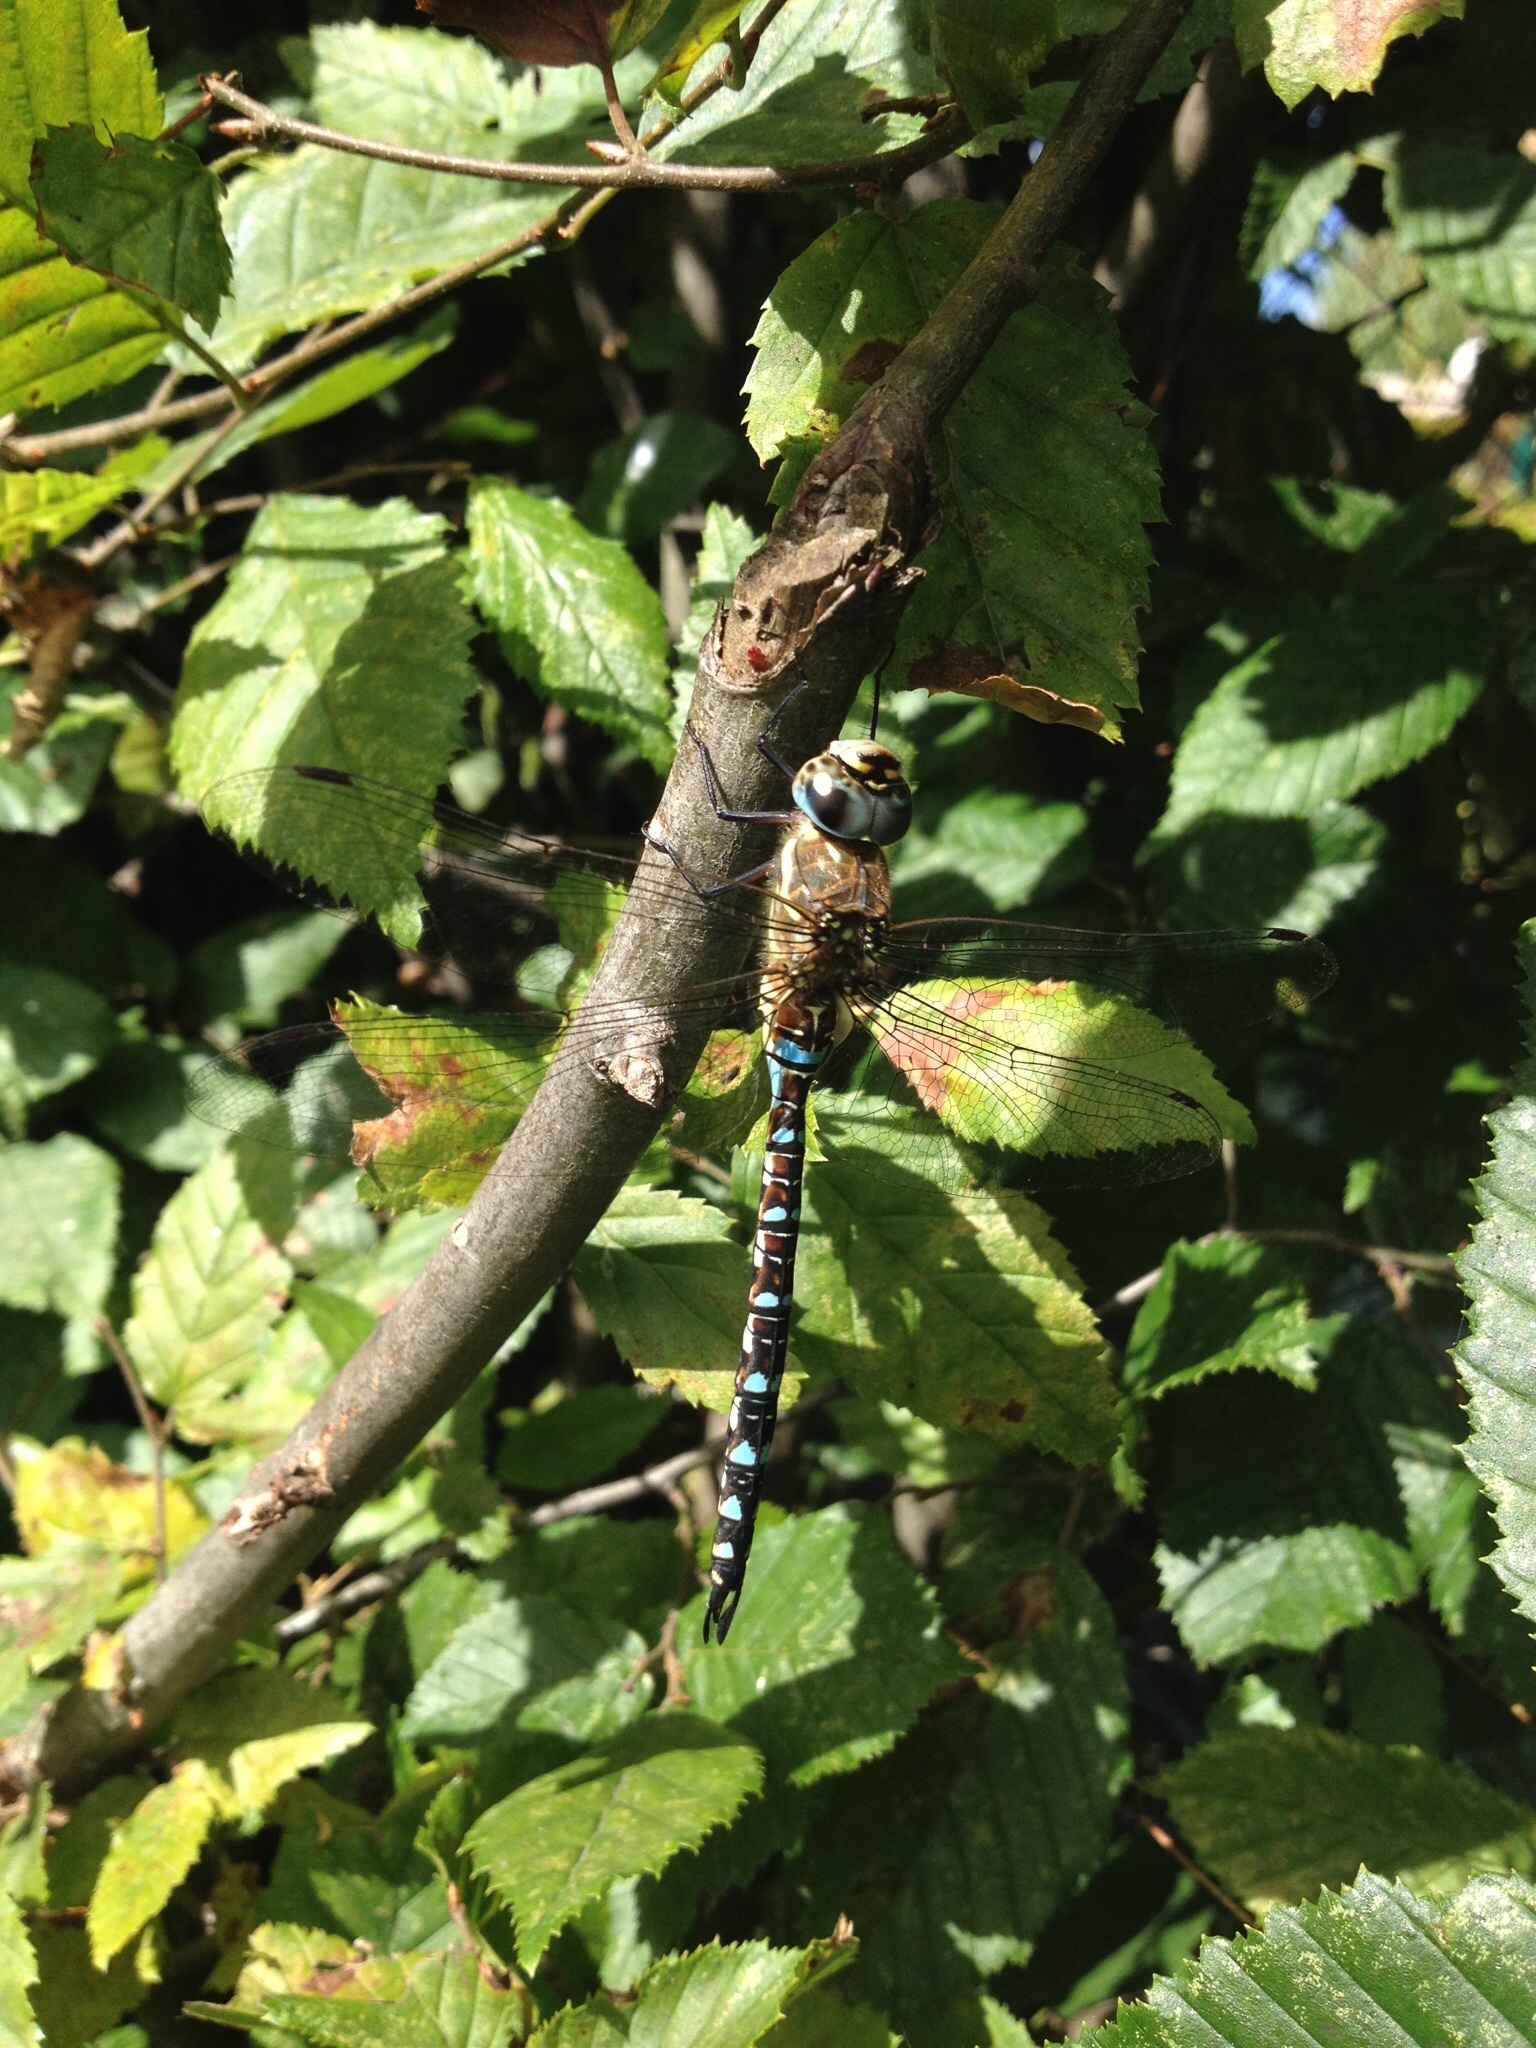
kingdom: Animalia
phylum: Arthropoda
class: Insecta
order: Odonata
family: Aeshnidae
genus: Aeshna
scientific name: Aeshna mixta
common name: Migrant hawker
